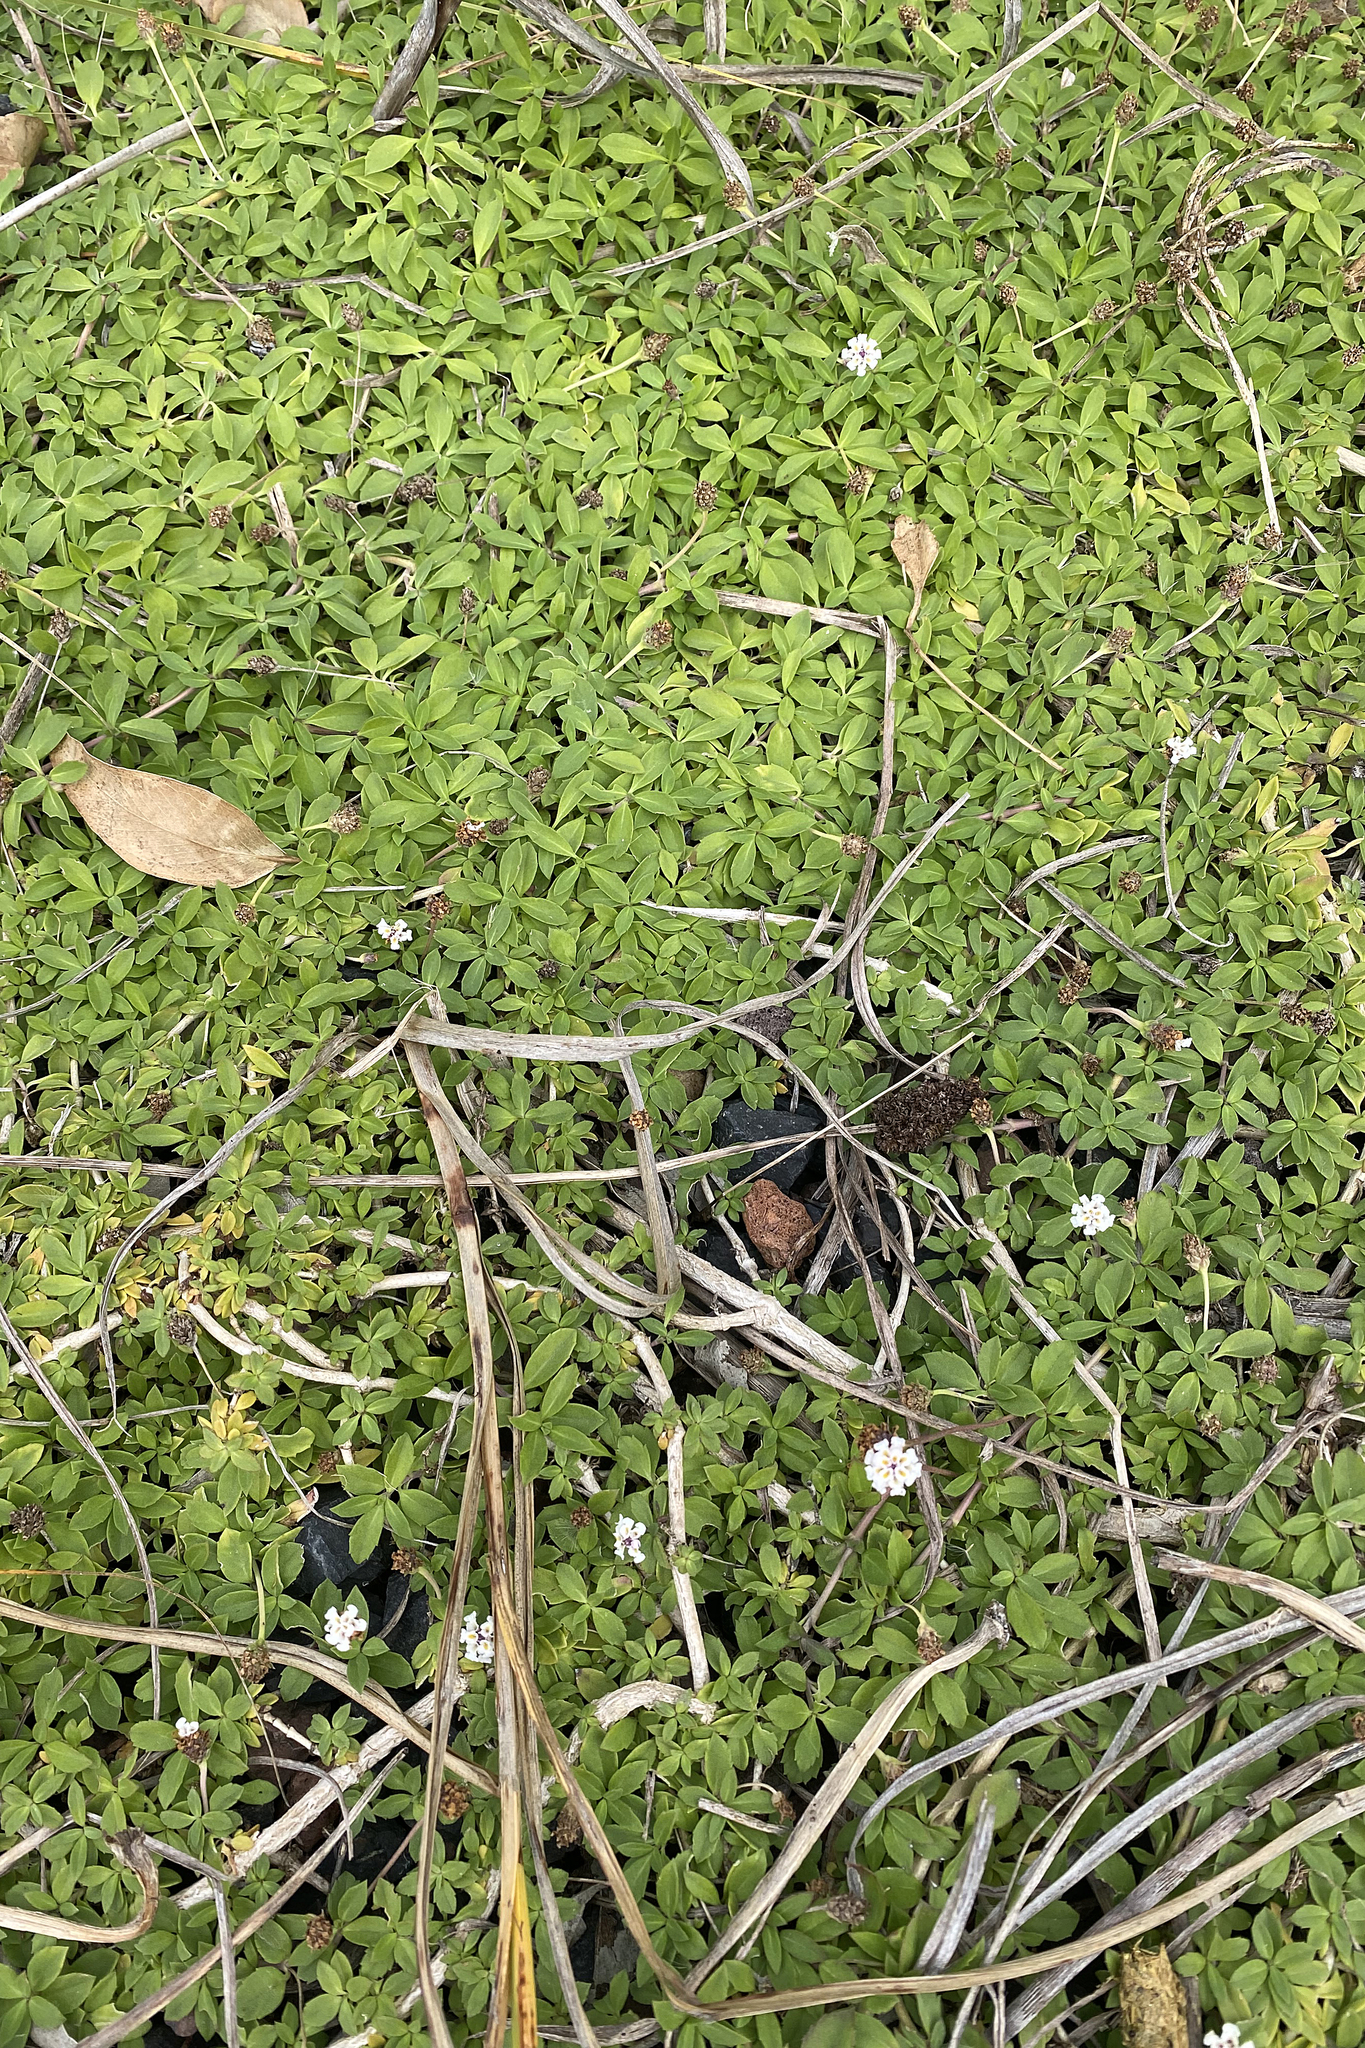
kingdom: Plantae
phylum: Tracheophyta
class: Magnoliopsida
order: Lamiales
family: Verbenaceae
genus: Phyla
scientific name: Phyla nodiflora
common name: Frogfruit
